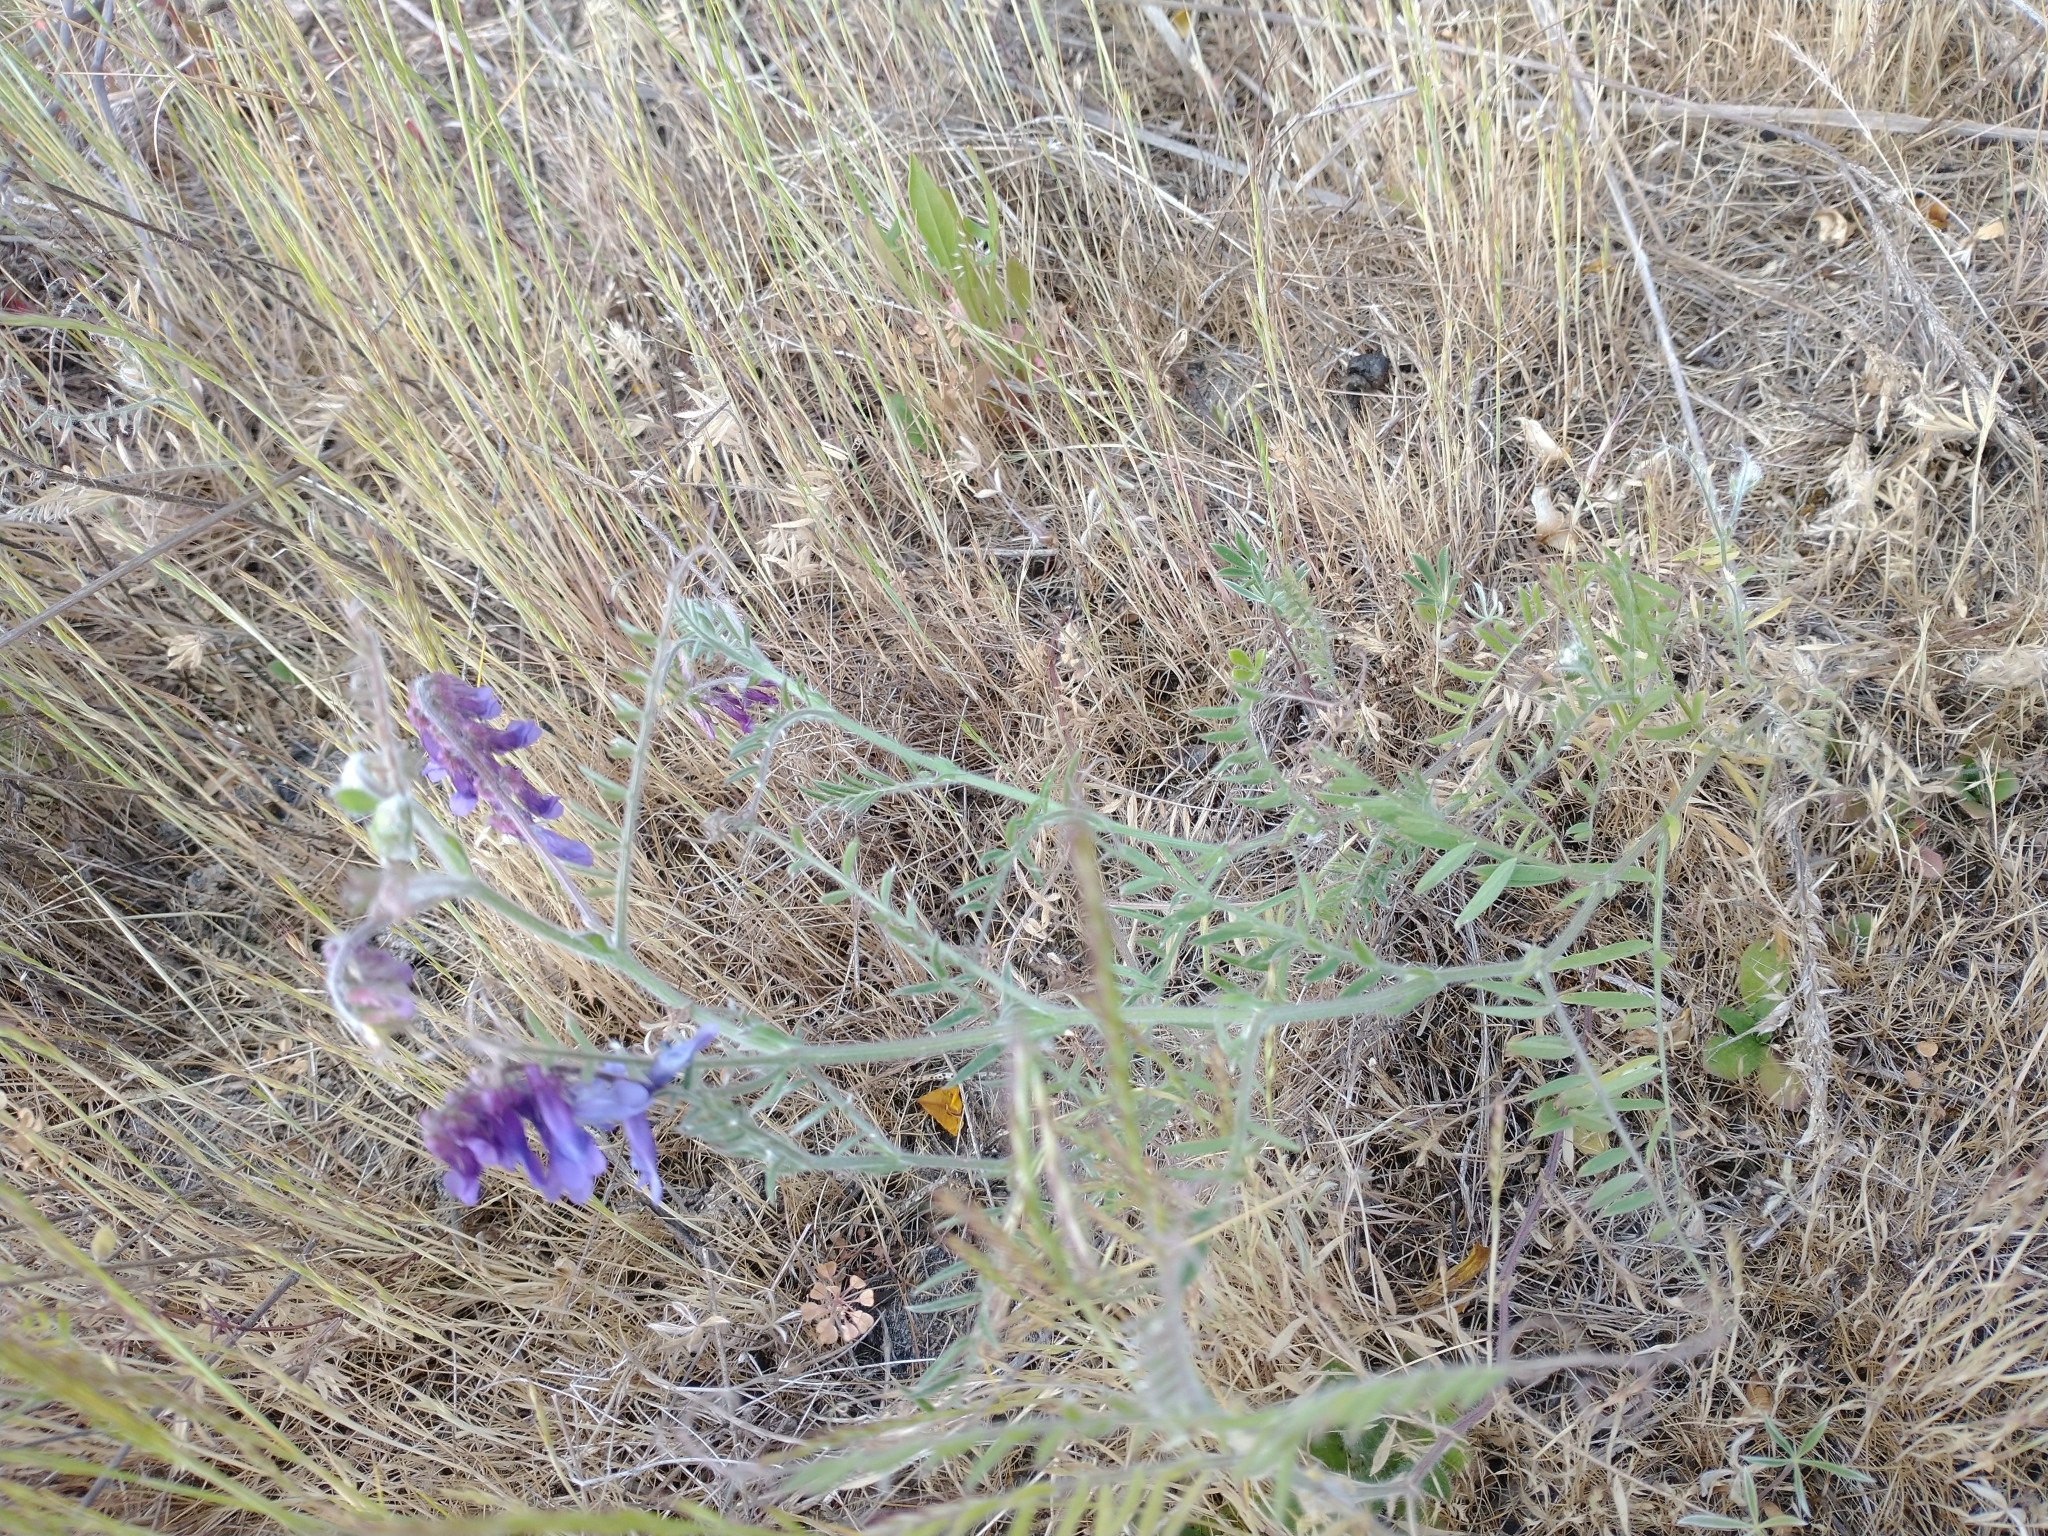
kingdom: Plantae
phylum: Tracheophyta
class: Magnoliopsida
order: Fabales
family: Fabaceae
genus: Vicia
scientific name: Vicia villosa
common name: Fodder vetch
